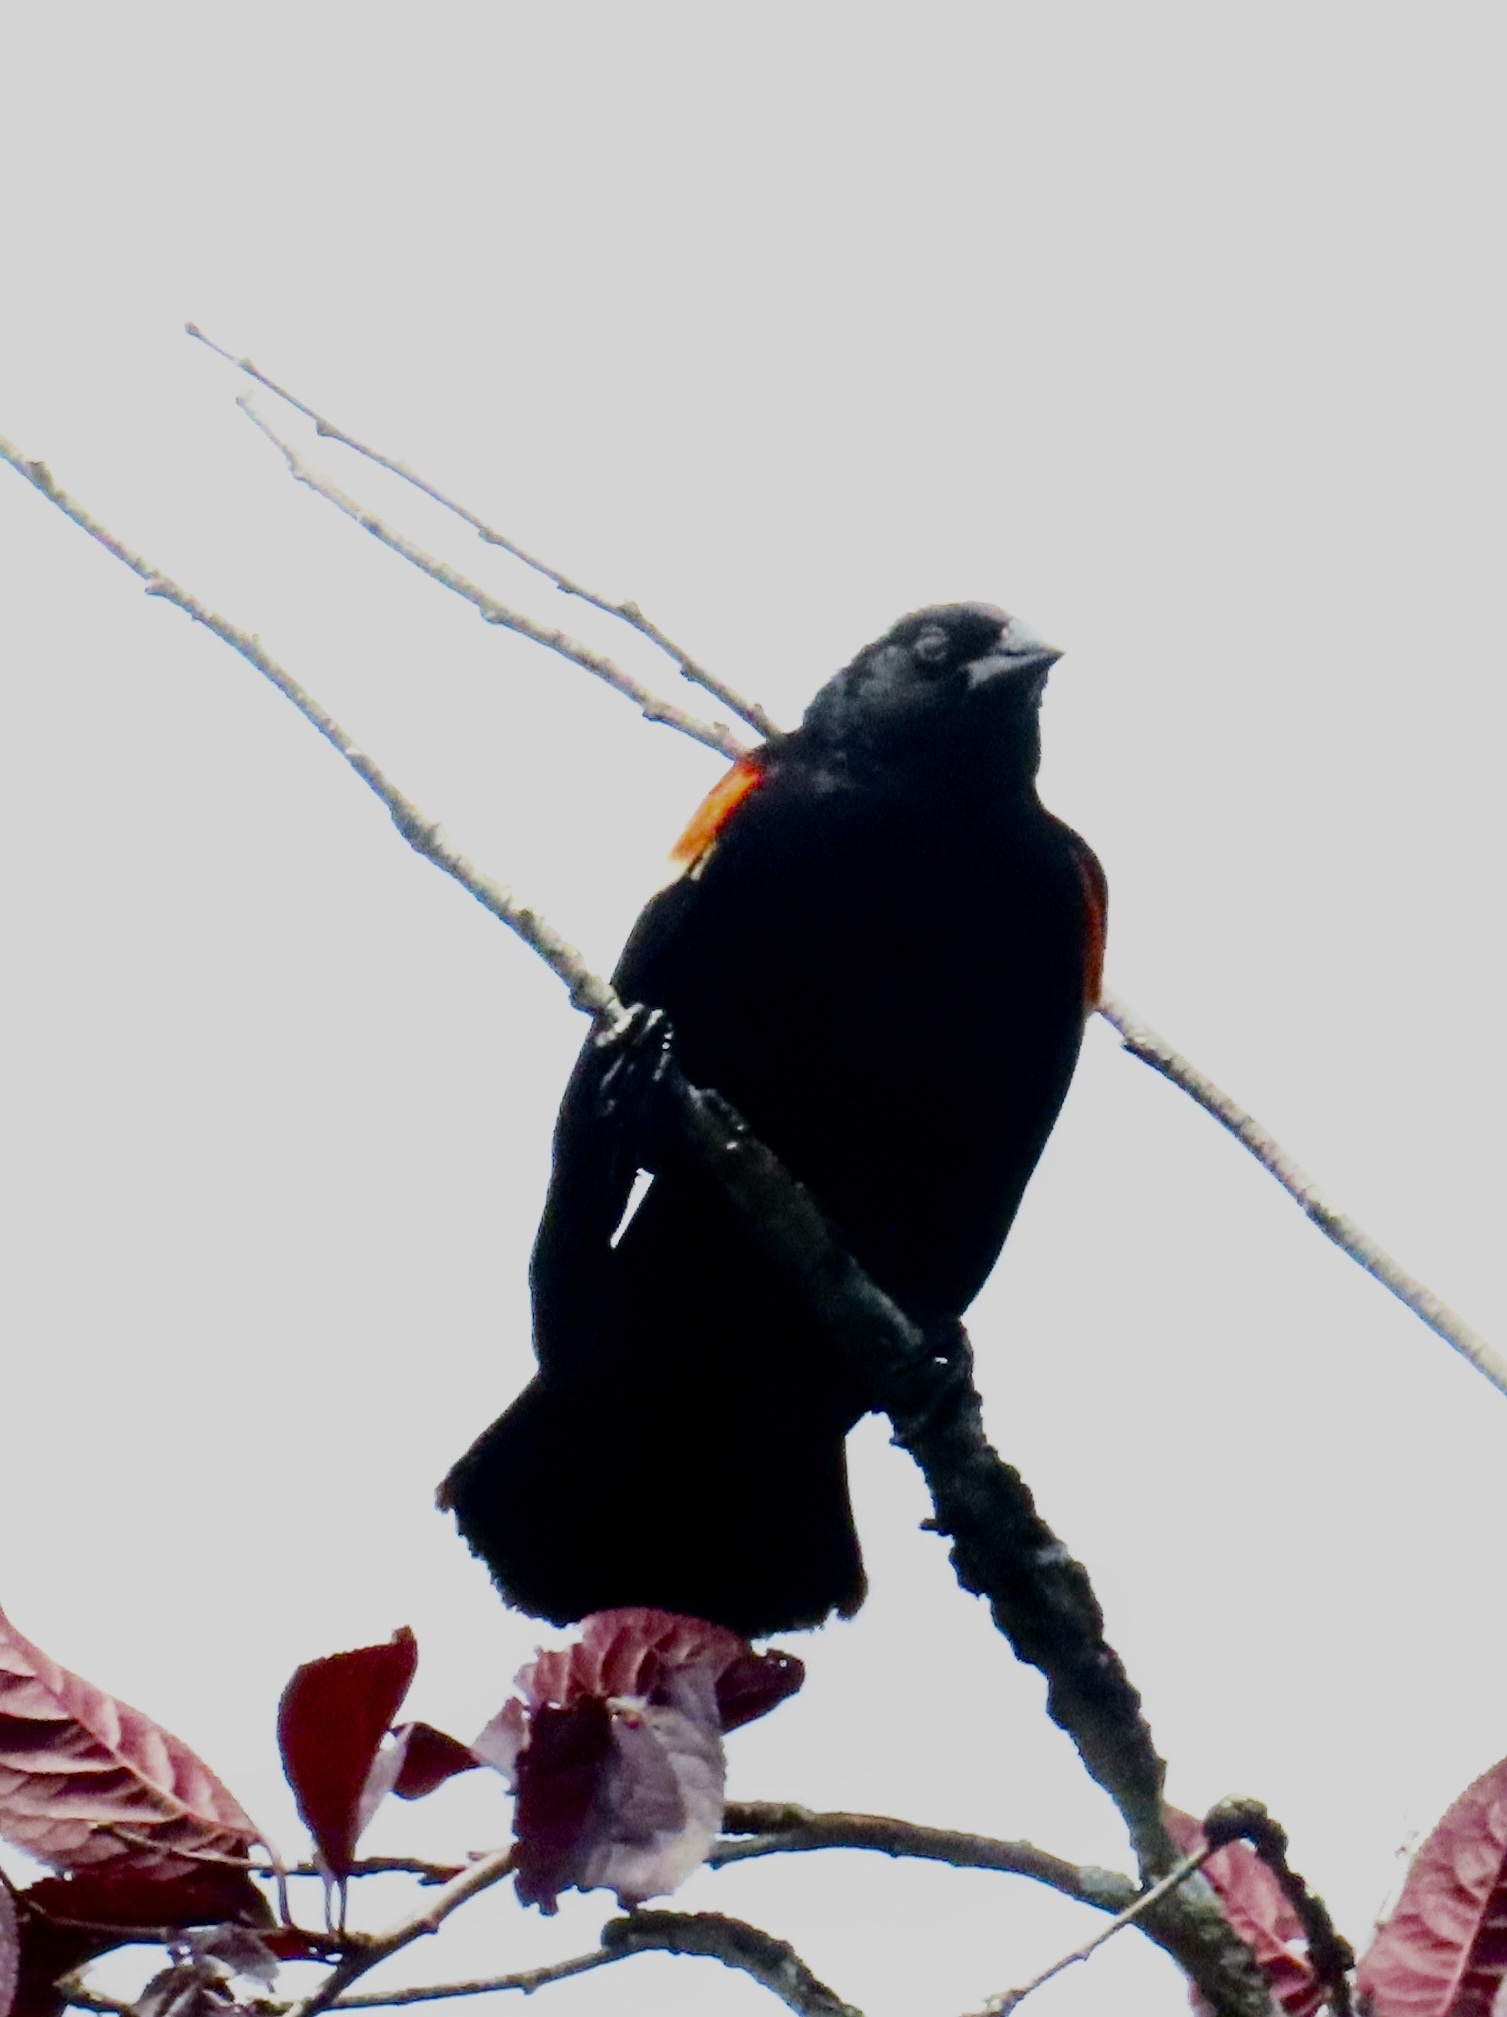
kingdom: Animalia
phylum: Chordata
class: Aves
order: Passeriformes
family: Icteridae
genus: Agelaius
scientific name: Agelaius phoeniceus
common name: Red-winged blackbird
